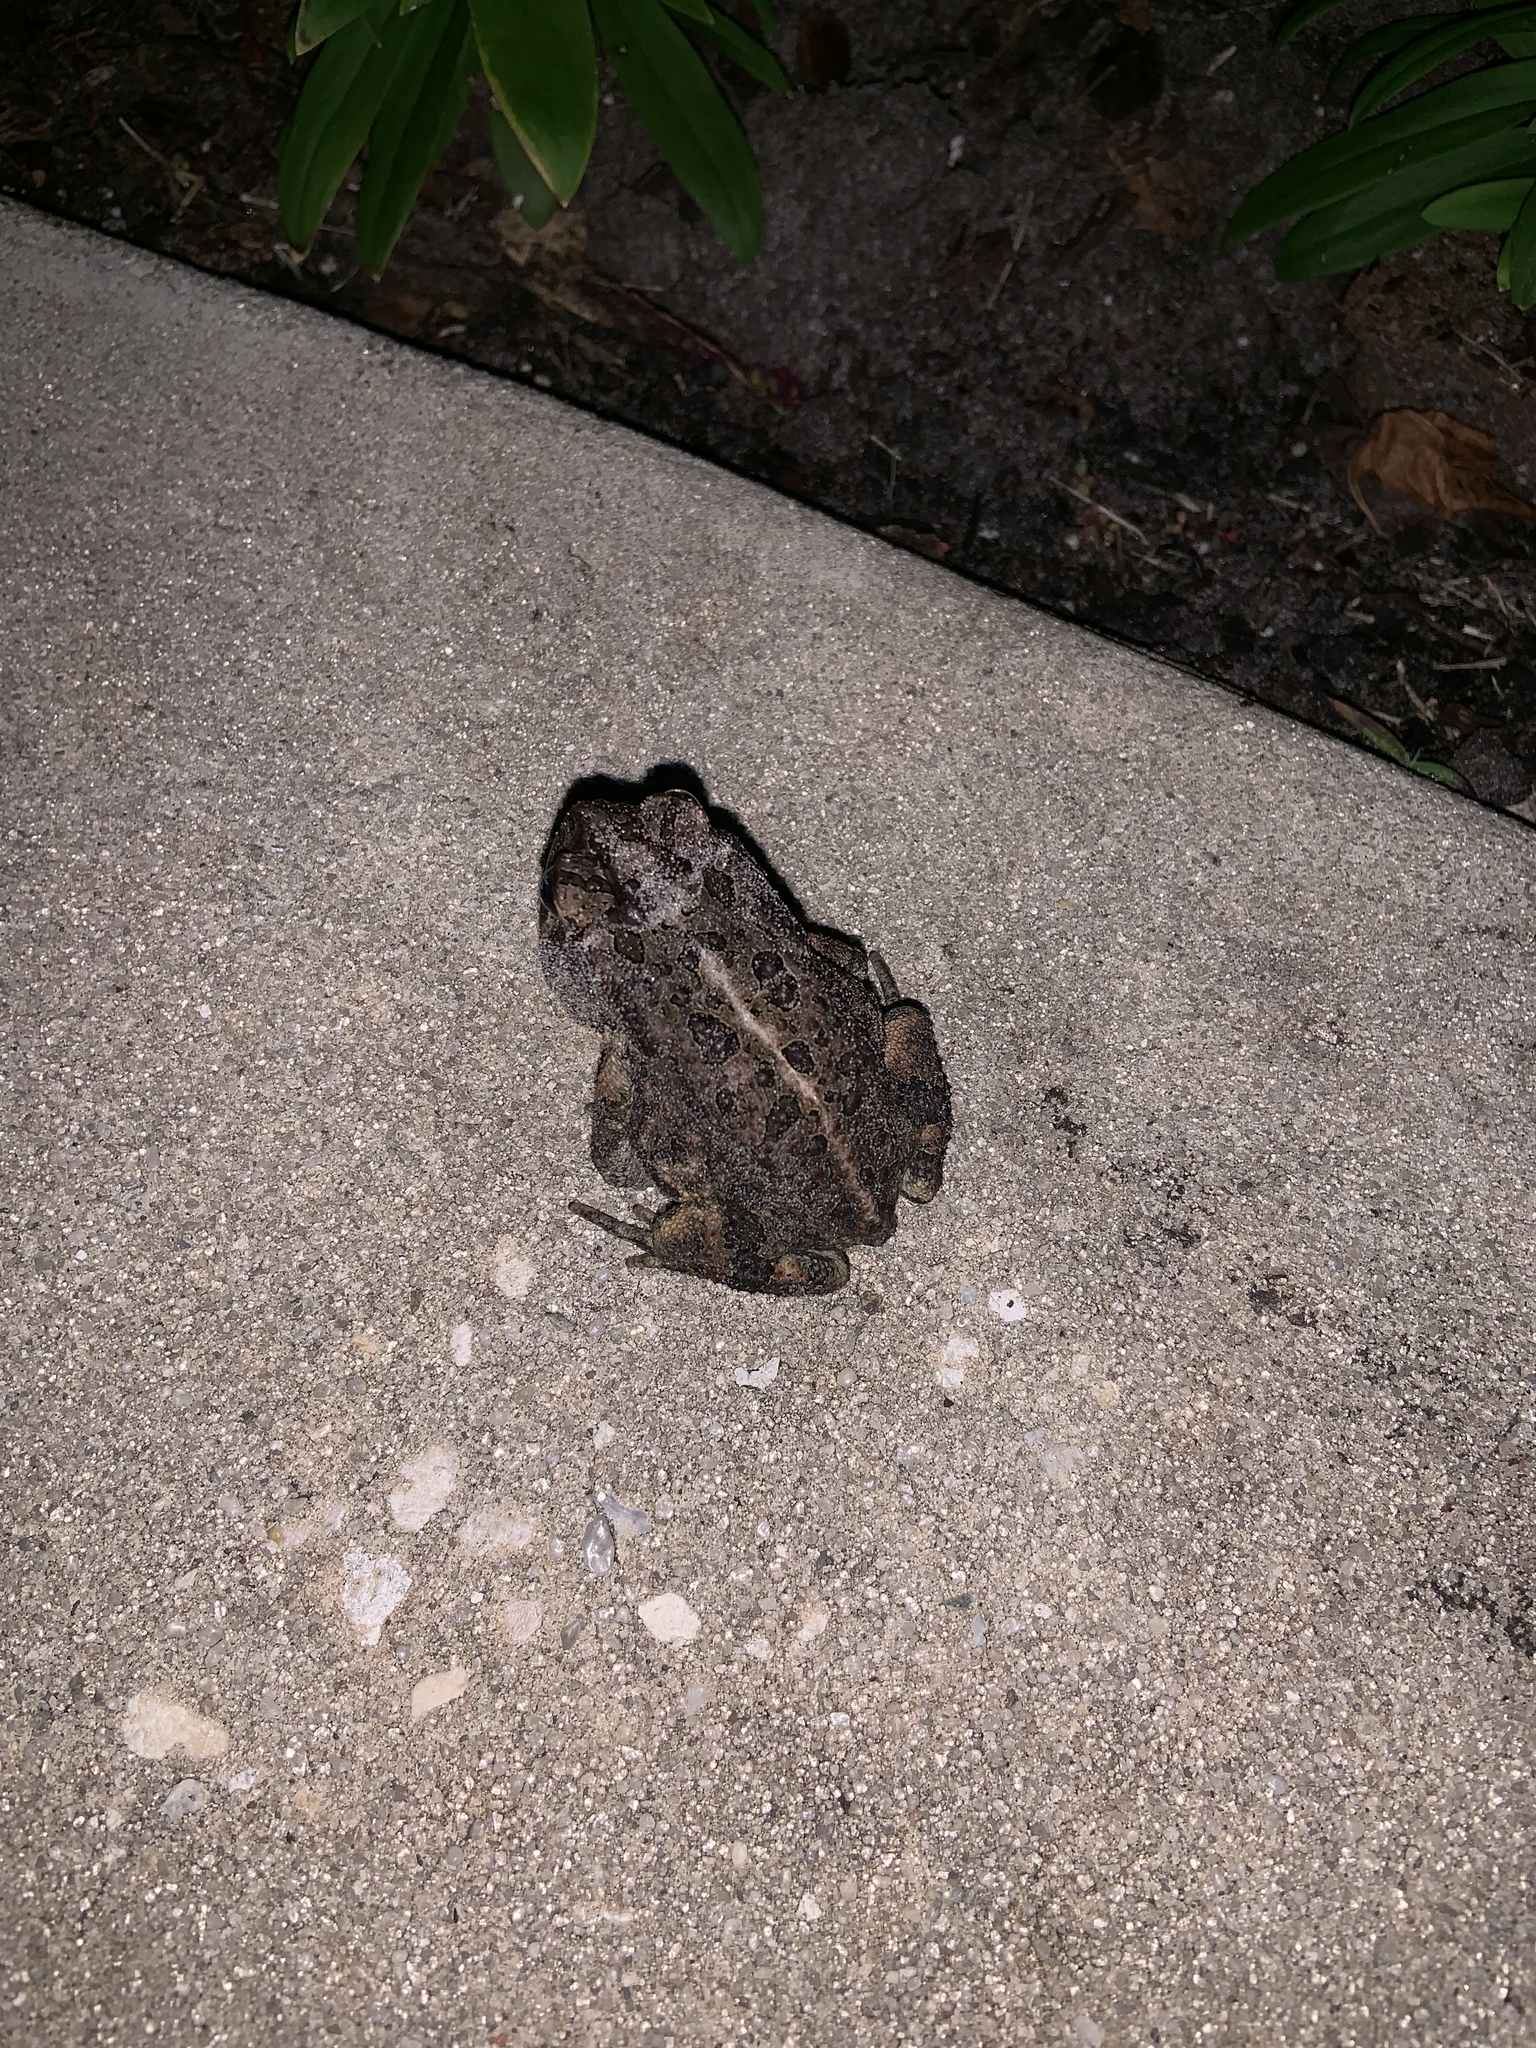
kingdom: Animalia
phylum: Chordata
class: Amphibia
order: Anura
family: Bufonidae
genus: Anaxyrus
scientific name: Anaxyrus terrestris
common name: Southern toad
